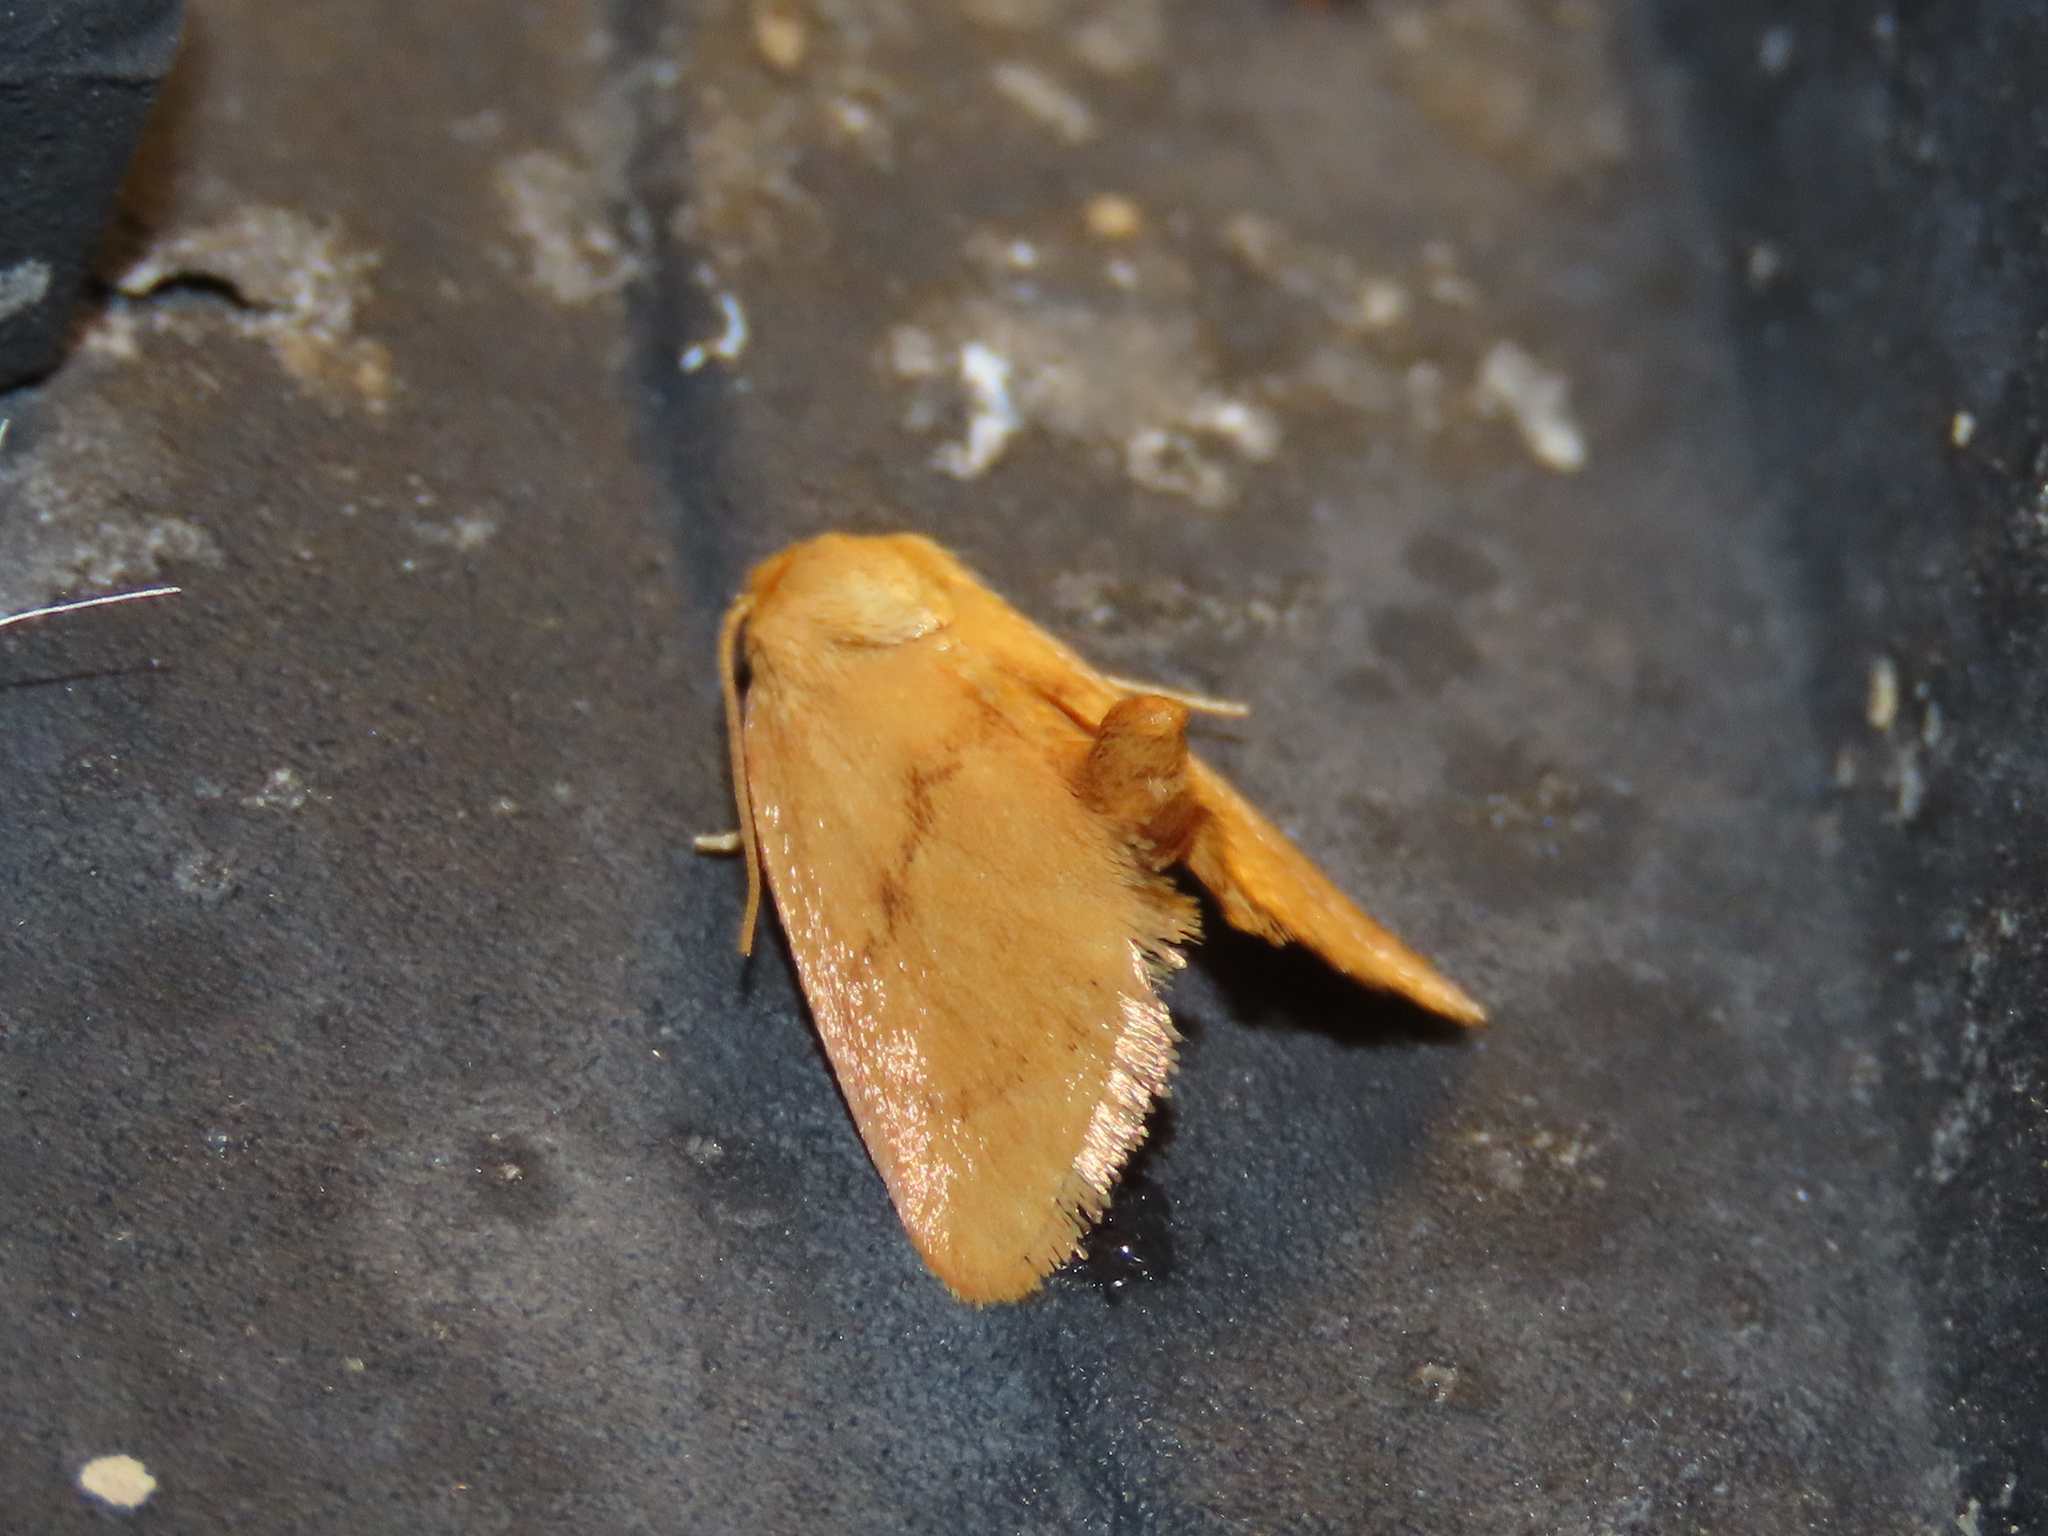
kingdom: Animalia
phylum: Arthropoda
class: Insecta
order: Lepidoptera
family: Limacodidae
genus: Tortricidia
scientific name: Tortricidia flexuosa
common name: Abbreviated button slug moth
